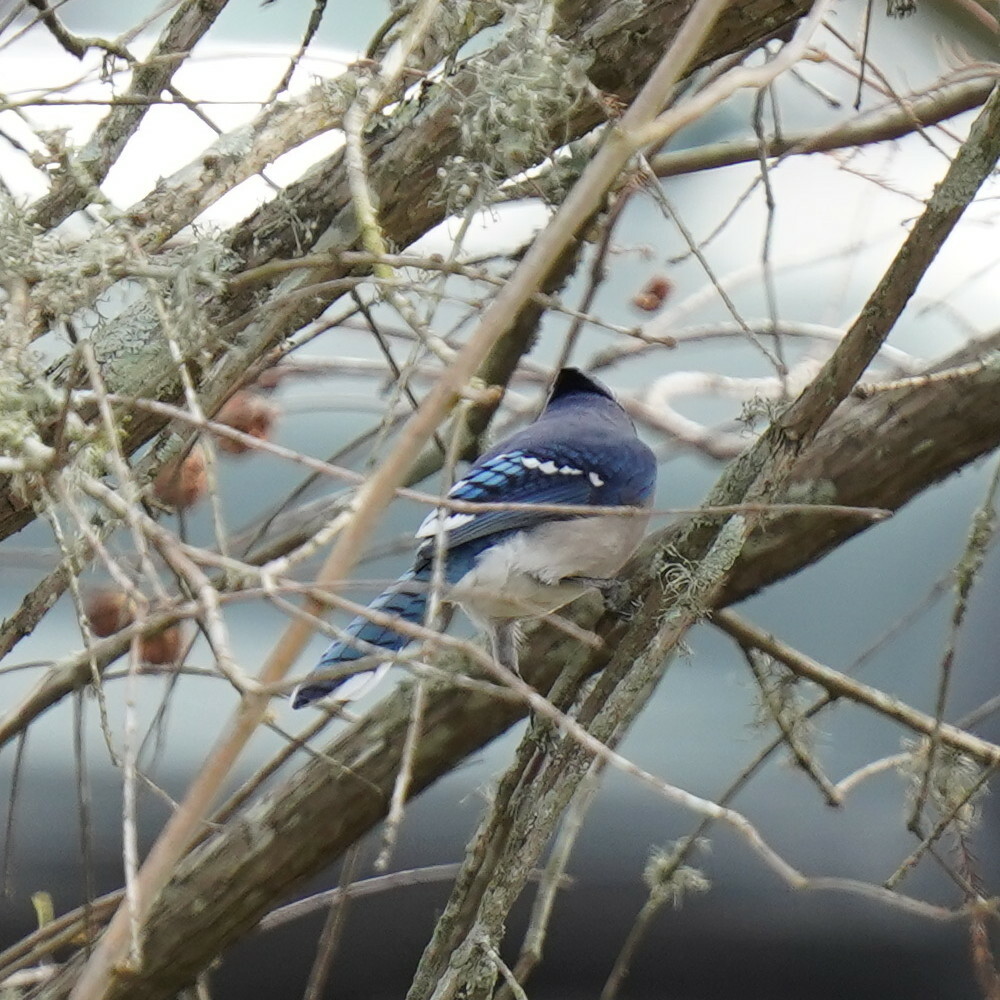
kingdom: Animalia
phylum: Chordata
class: Aves
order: Passeriformes
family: Corvidae
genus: Cyanocitta
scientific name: Cyanocitta cristata
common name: Blue jay
